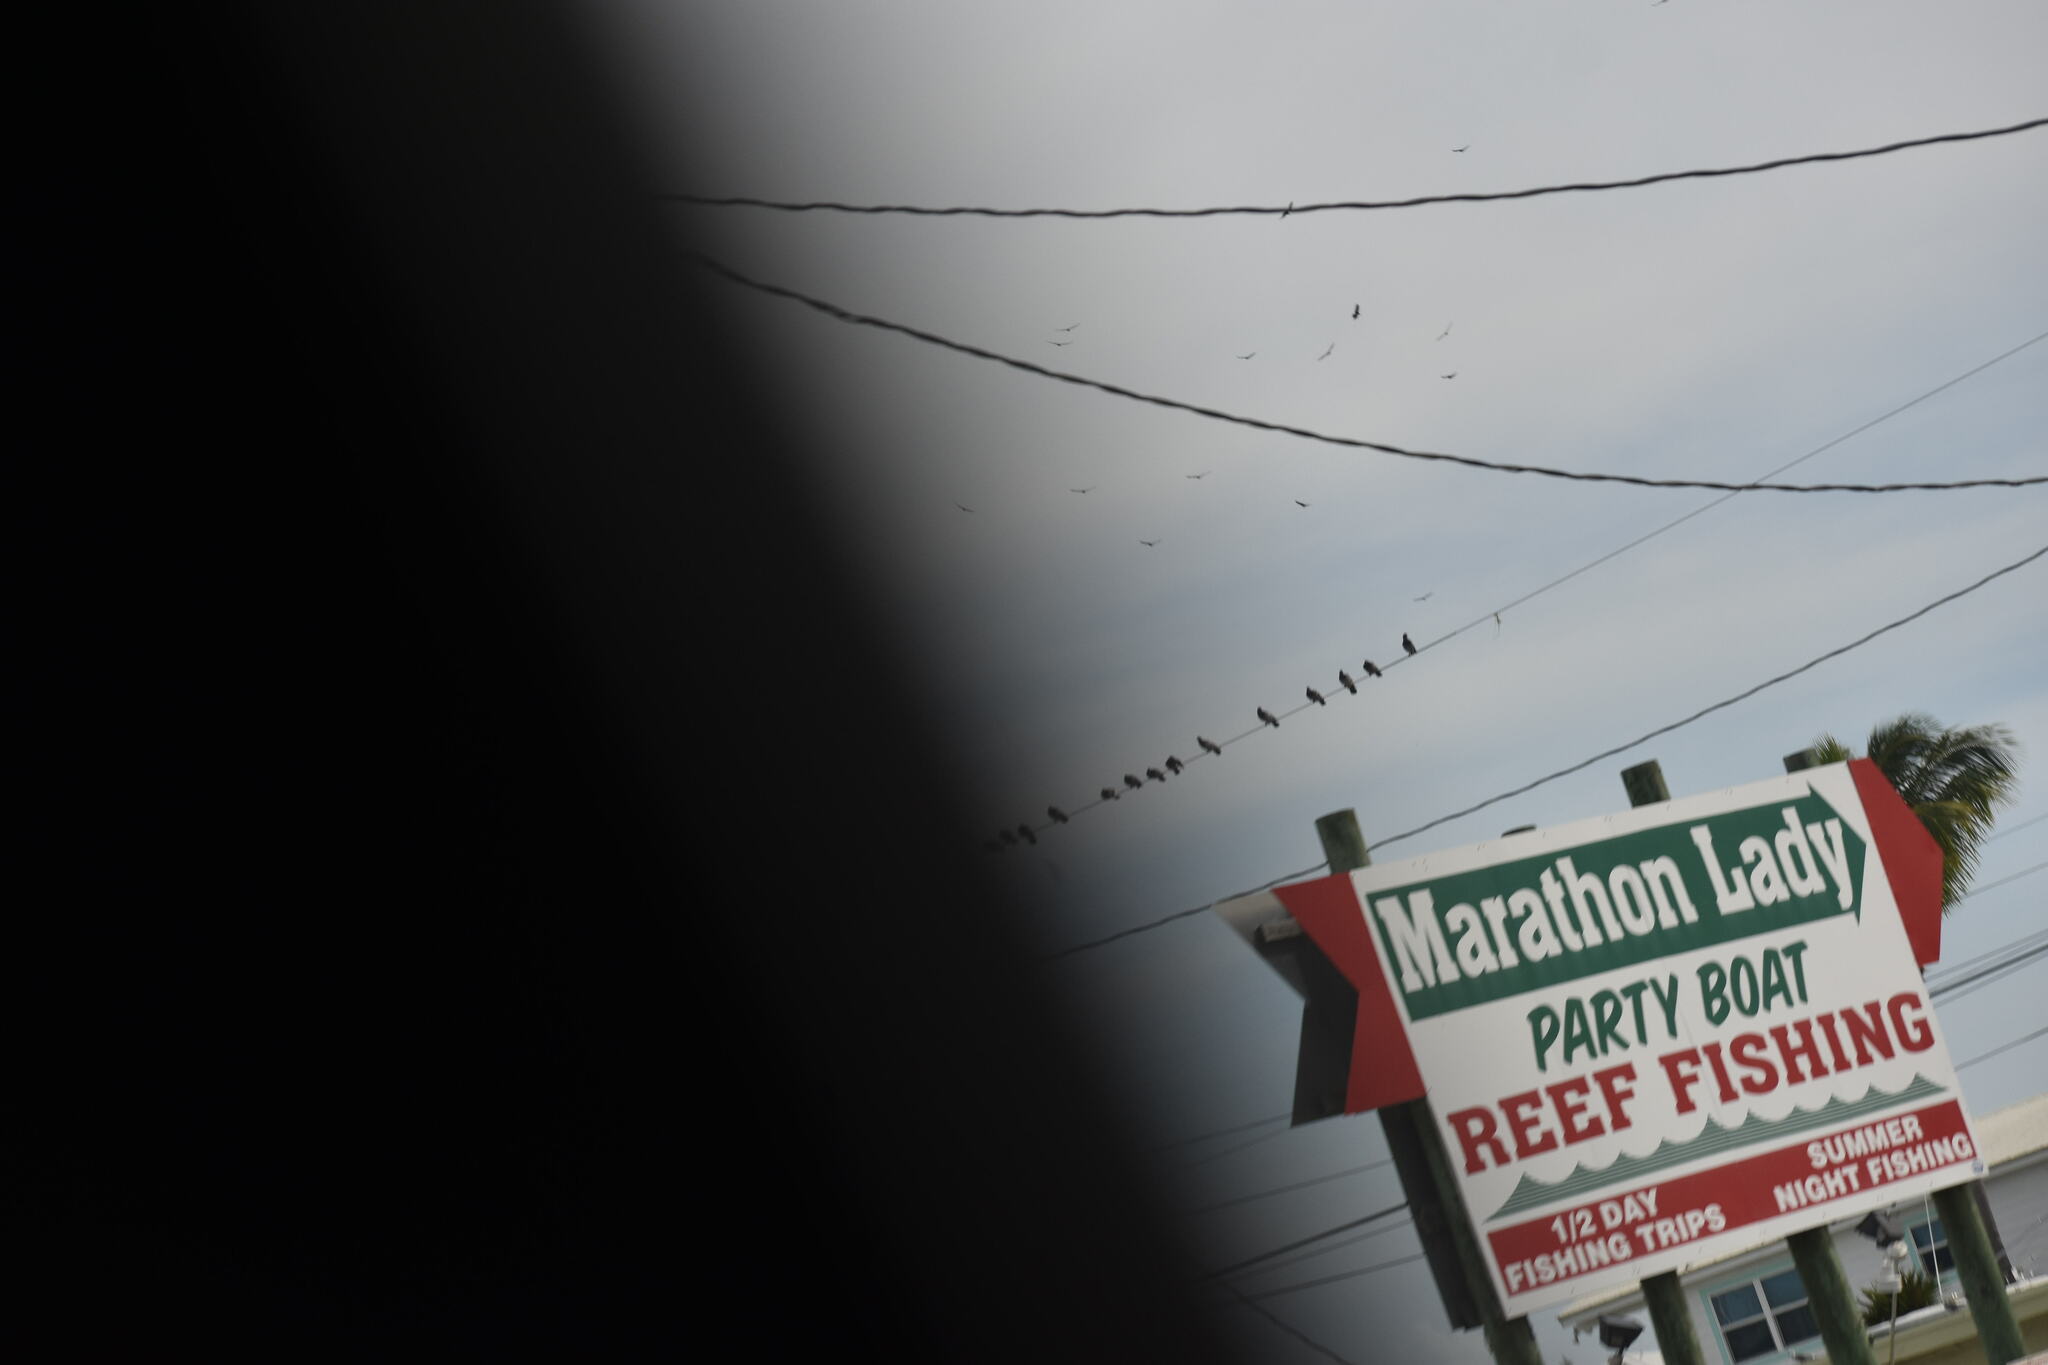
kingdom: Animalia
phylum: Chordata
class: Aves
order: Columbiformes
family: Columbidae
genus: Columba
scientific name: Columba livia
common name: Rock pigeon
